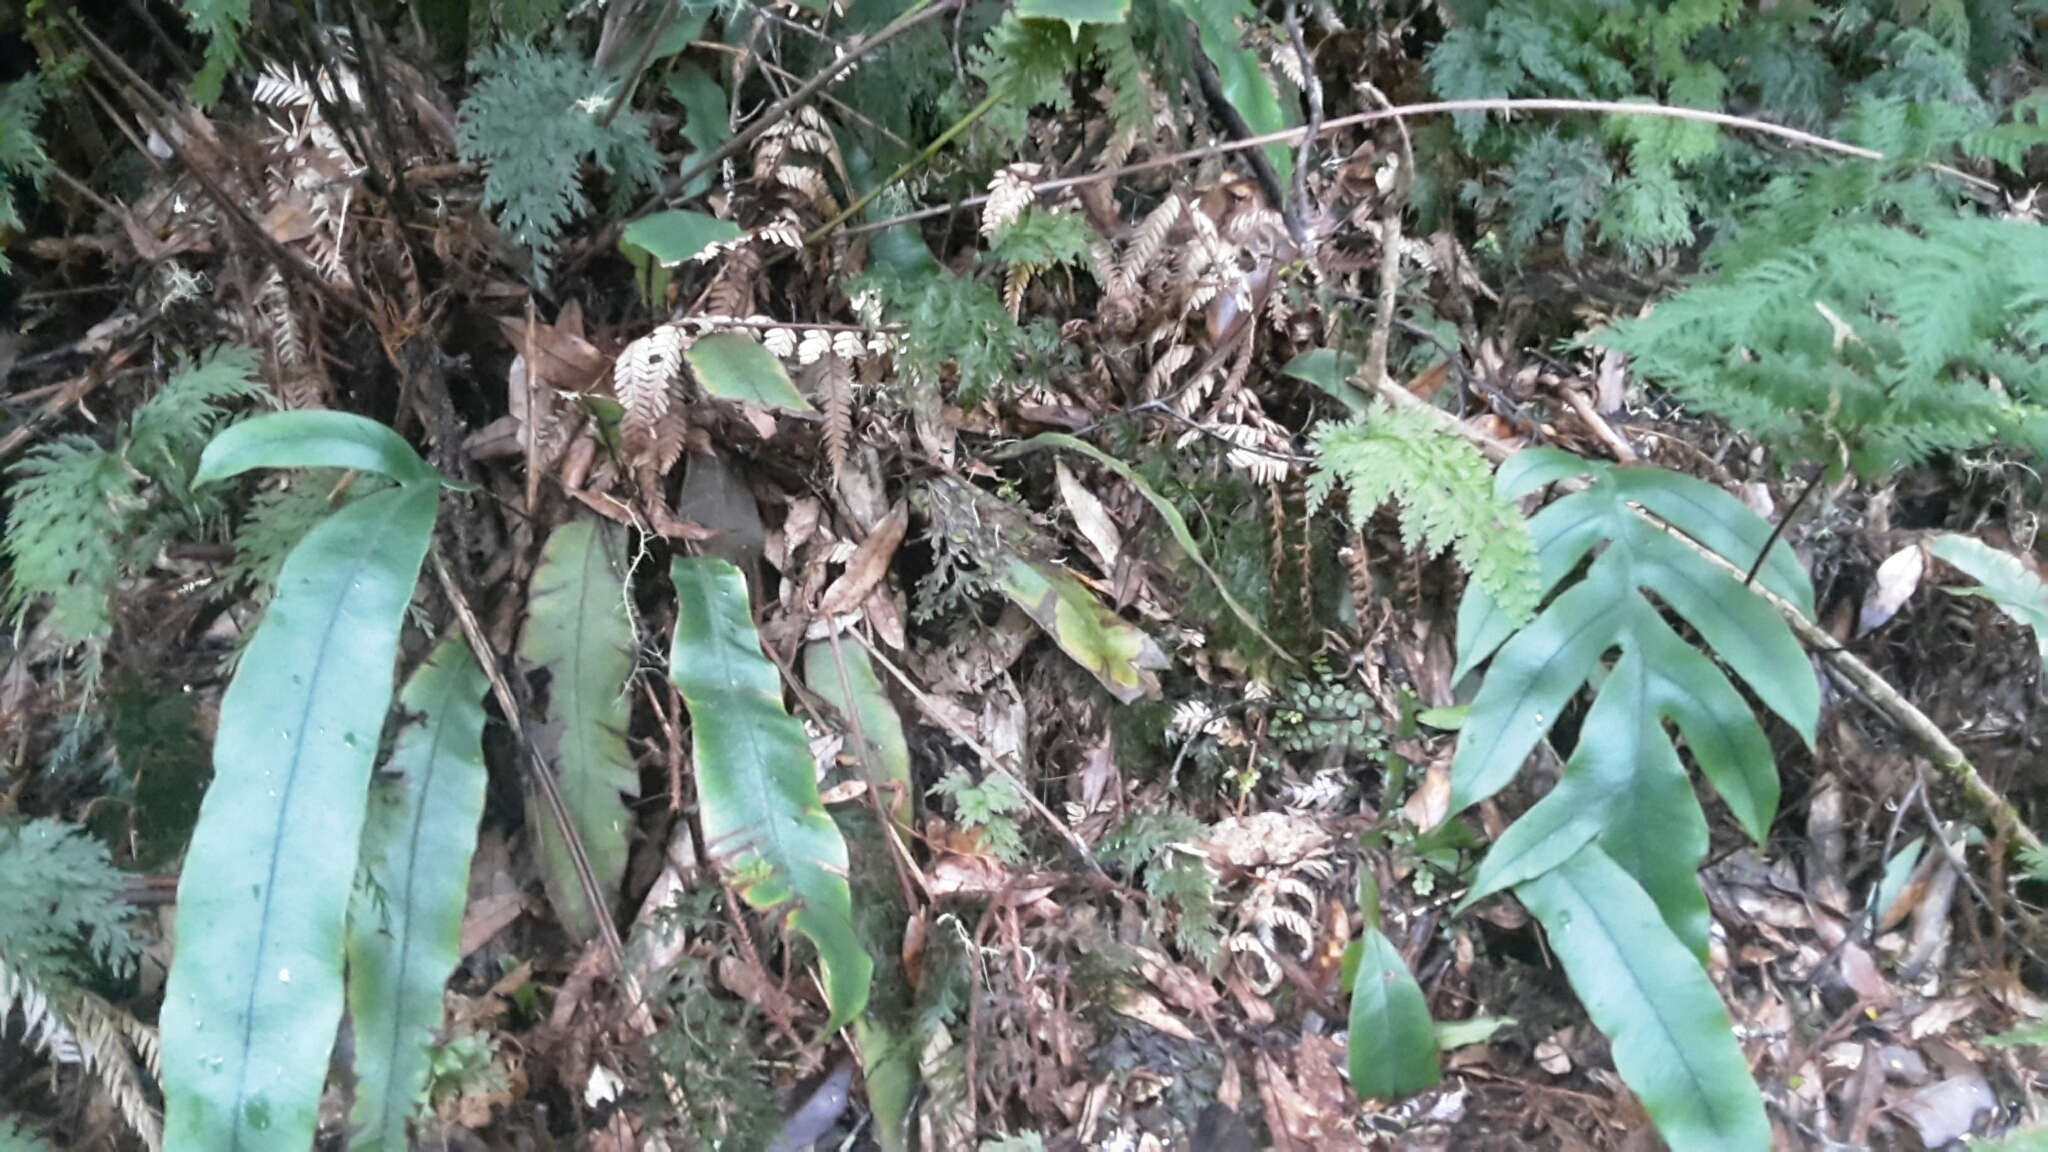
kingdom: Plantae
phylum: Tracheophyta
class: Polypodiopsida
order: Polypodiales
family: Blechnaceae
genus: Austroblechnum
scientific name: Austroblechnum colensoi
